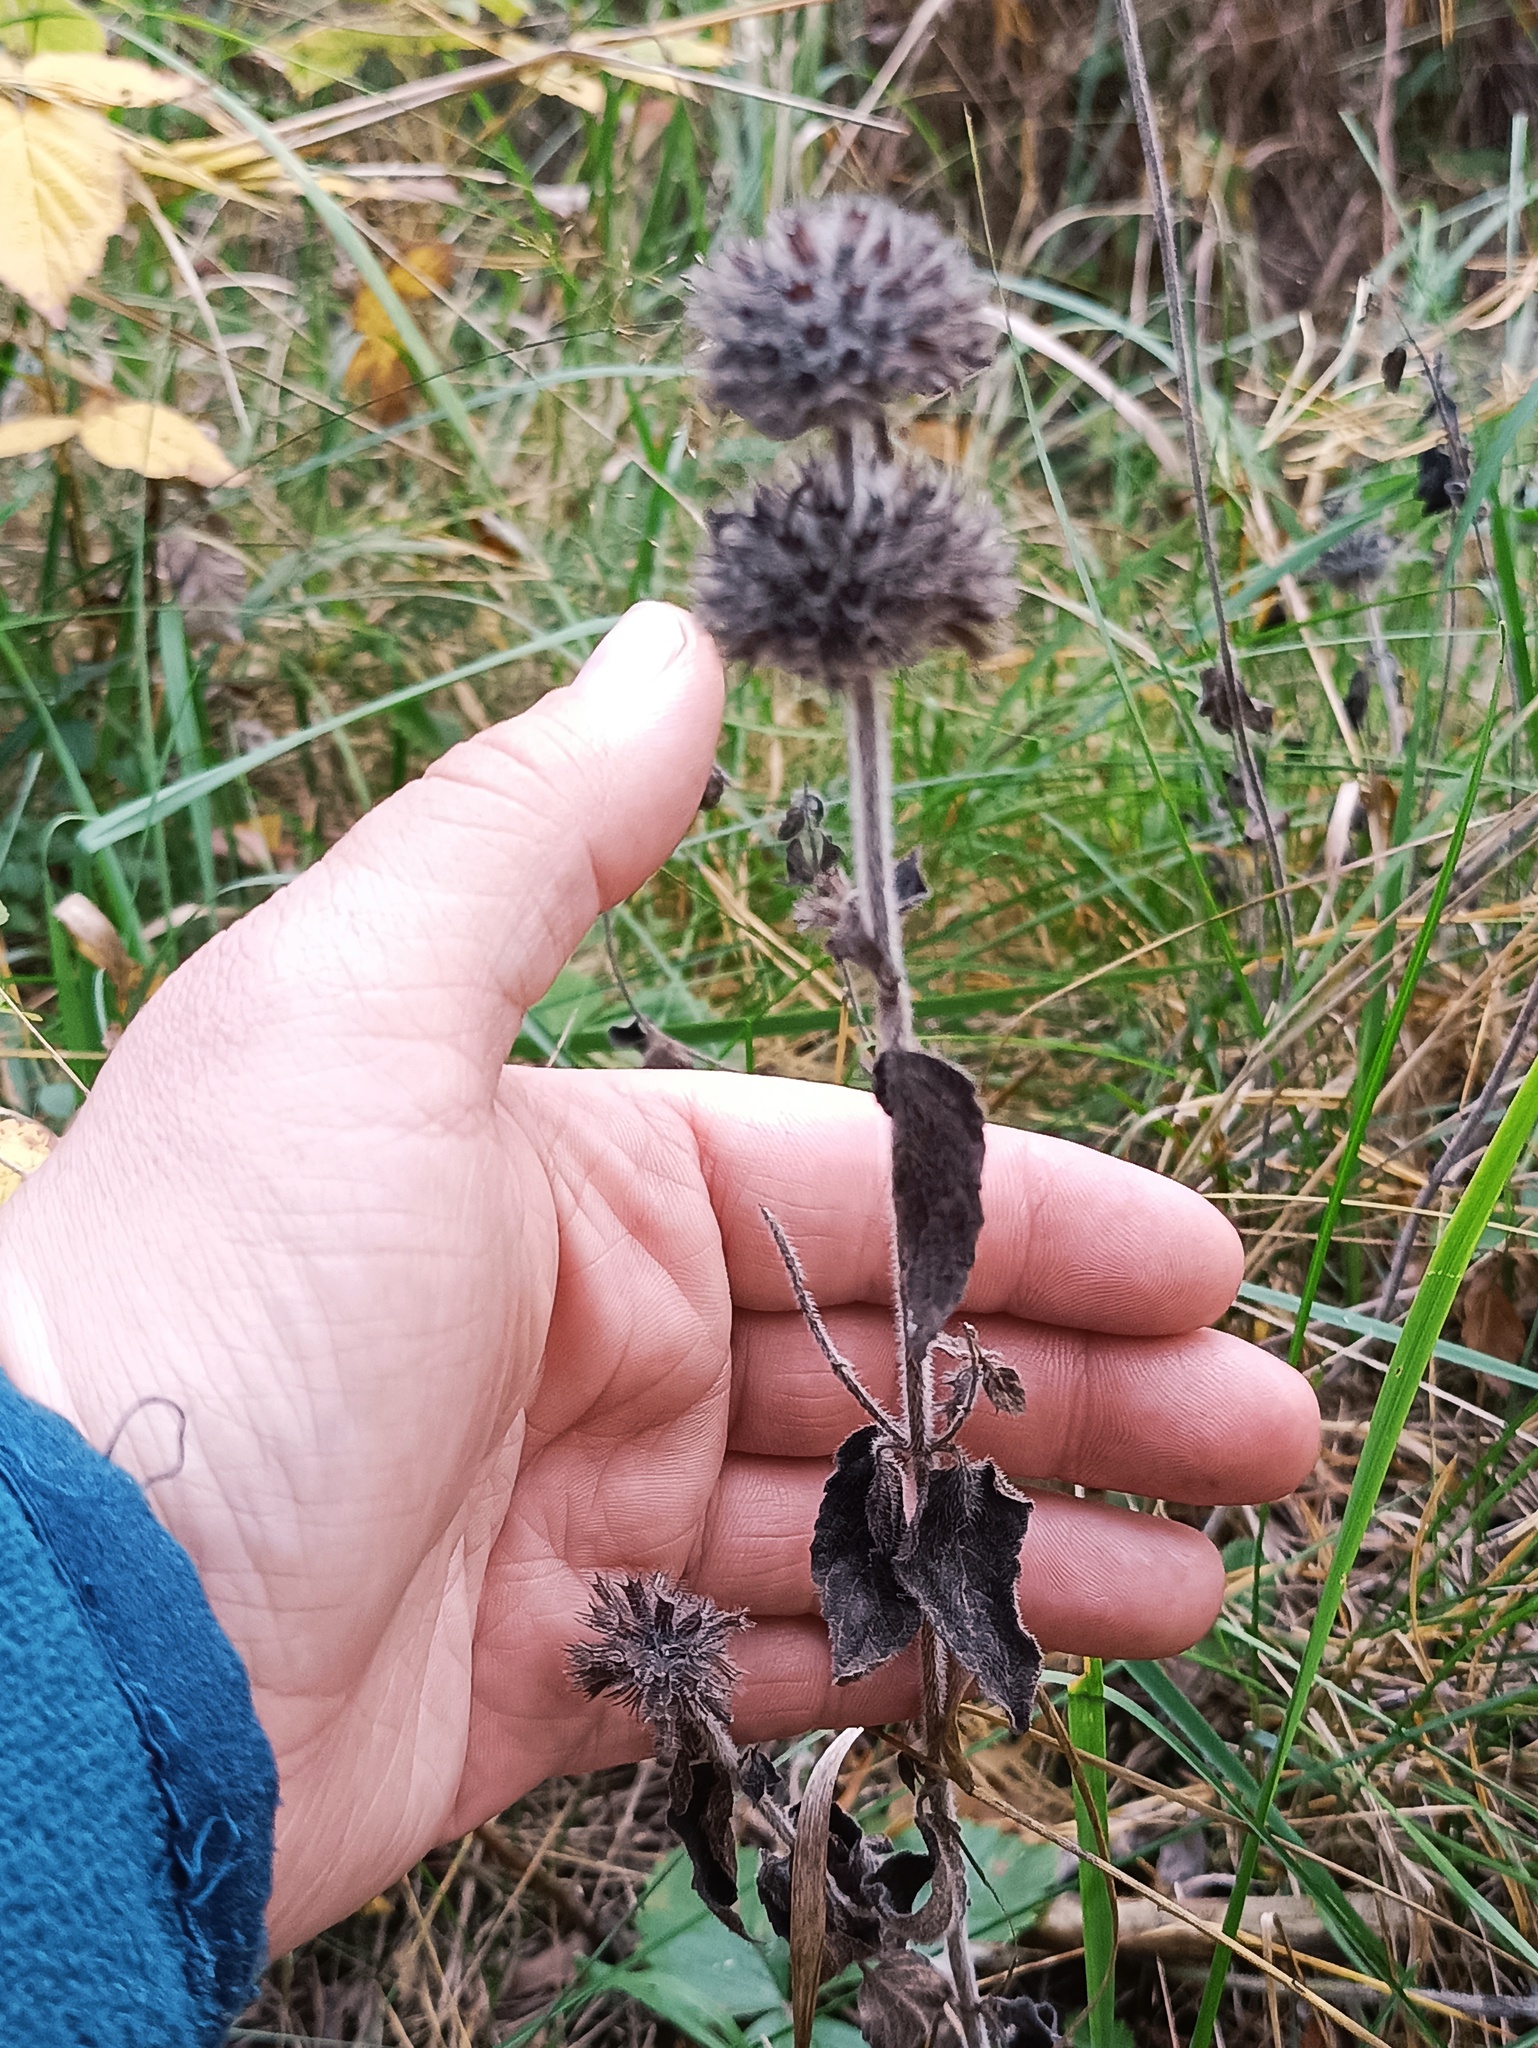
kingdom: Plantae
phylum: Tracheophyta
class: Magnoliopsida
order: Lamiales
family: Lamiaceae
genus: Clinopodium
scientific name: Clinopodium vulgare
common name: Wild basil
